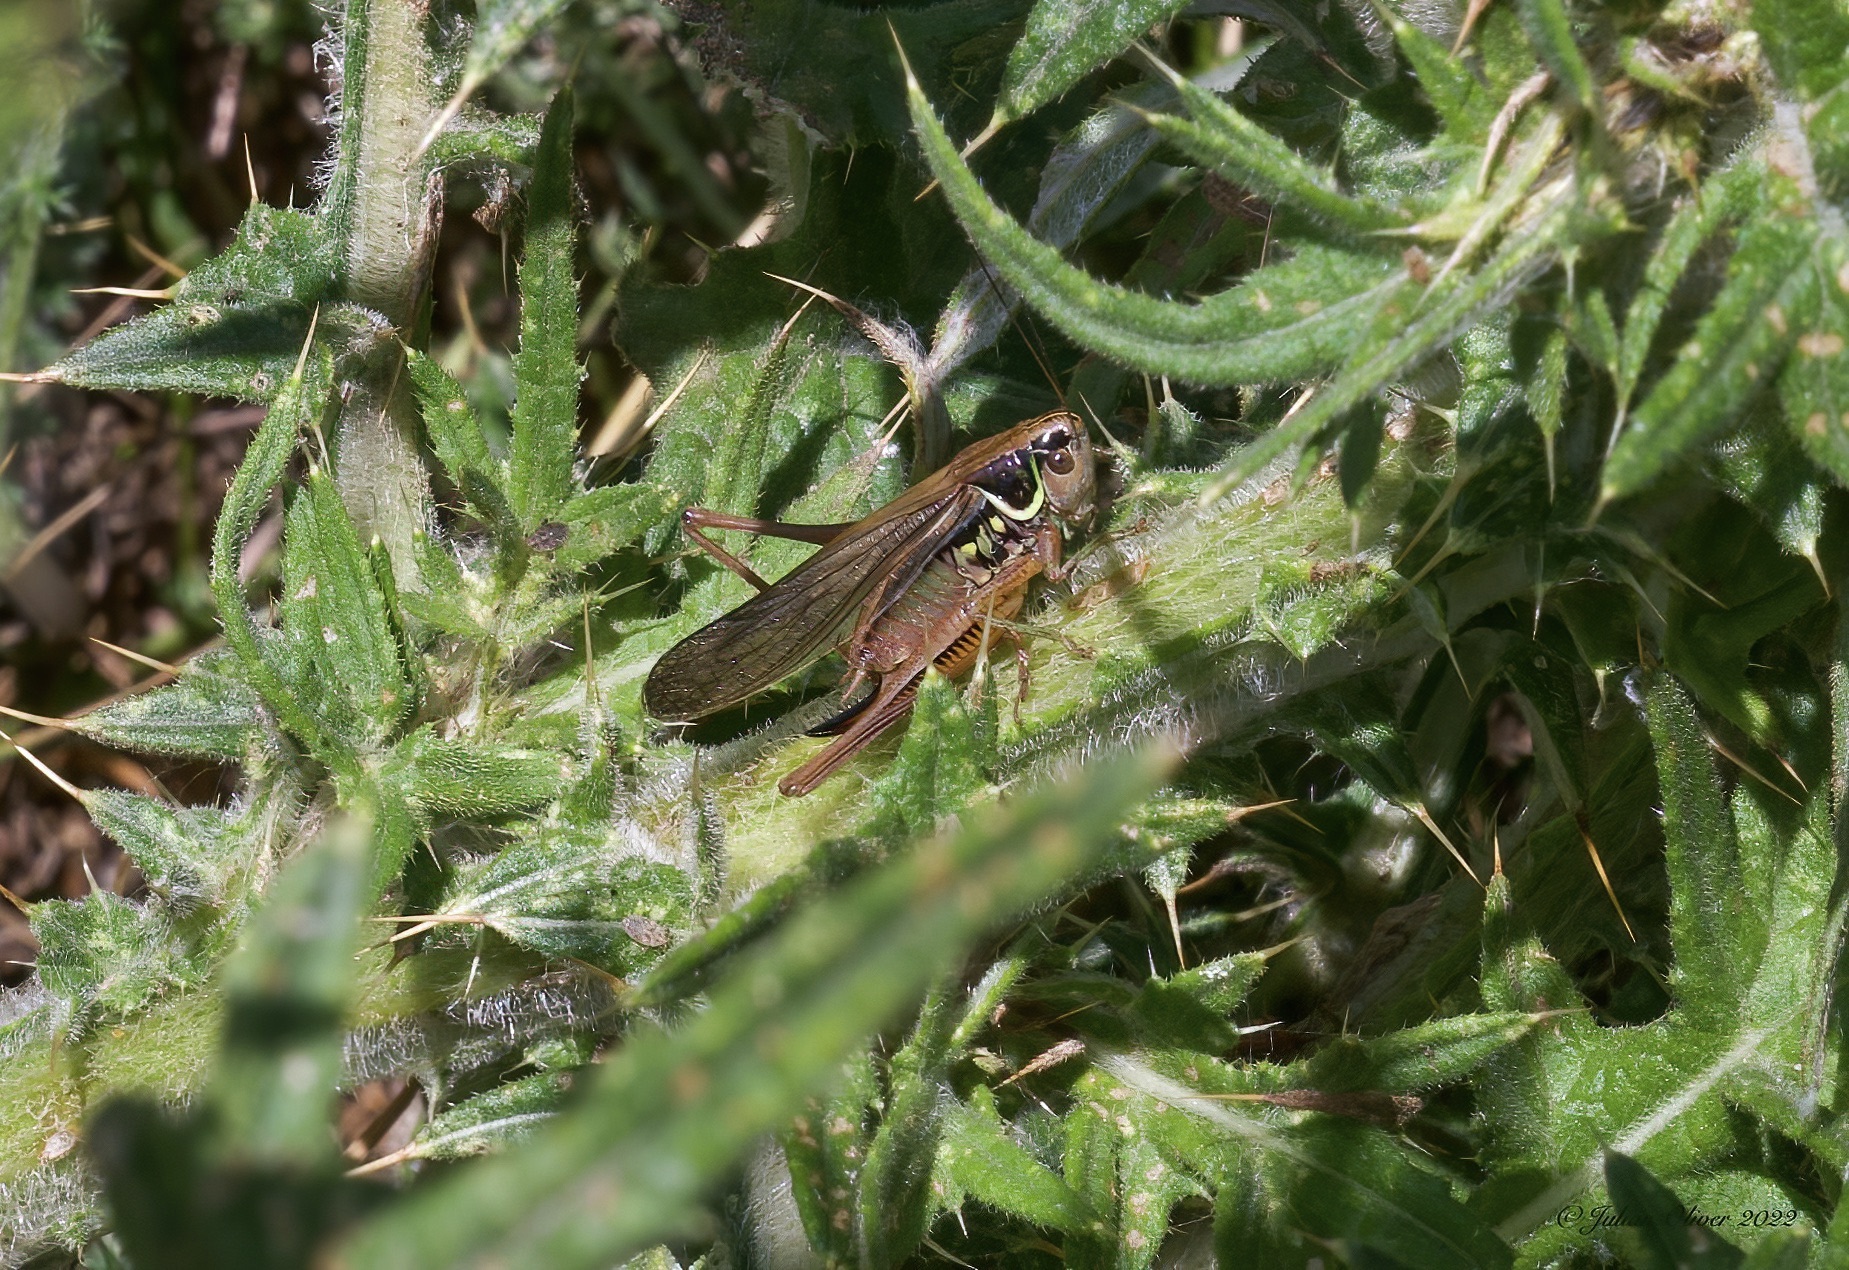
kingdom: Animalia
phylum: Arthropoda
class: Insecta
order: Orthoptera
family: Tettigoniidae
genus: Roeseliana
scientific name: Roeseliana roeselii
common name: Roesel's bush cricket
